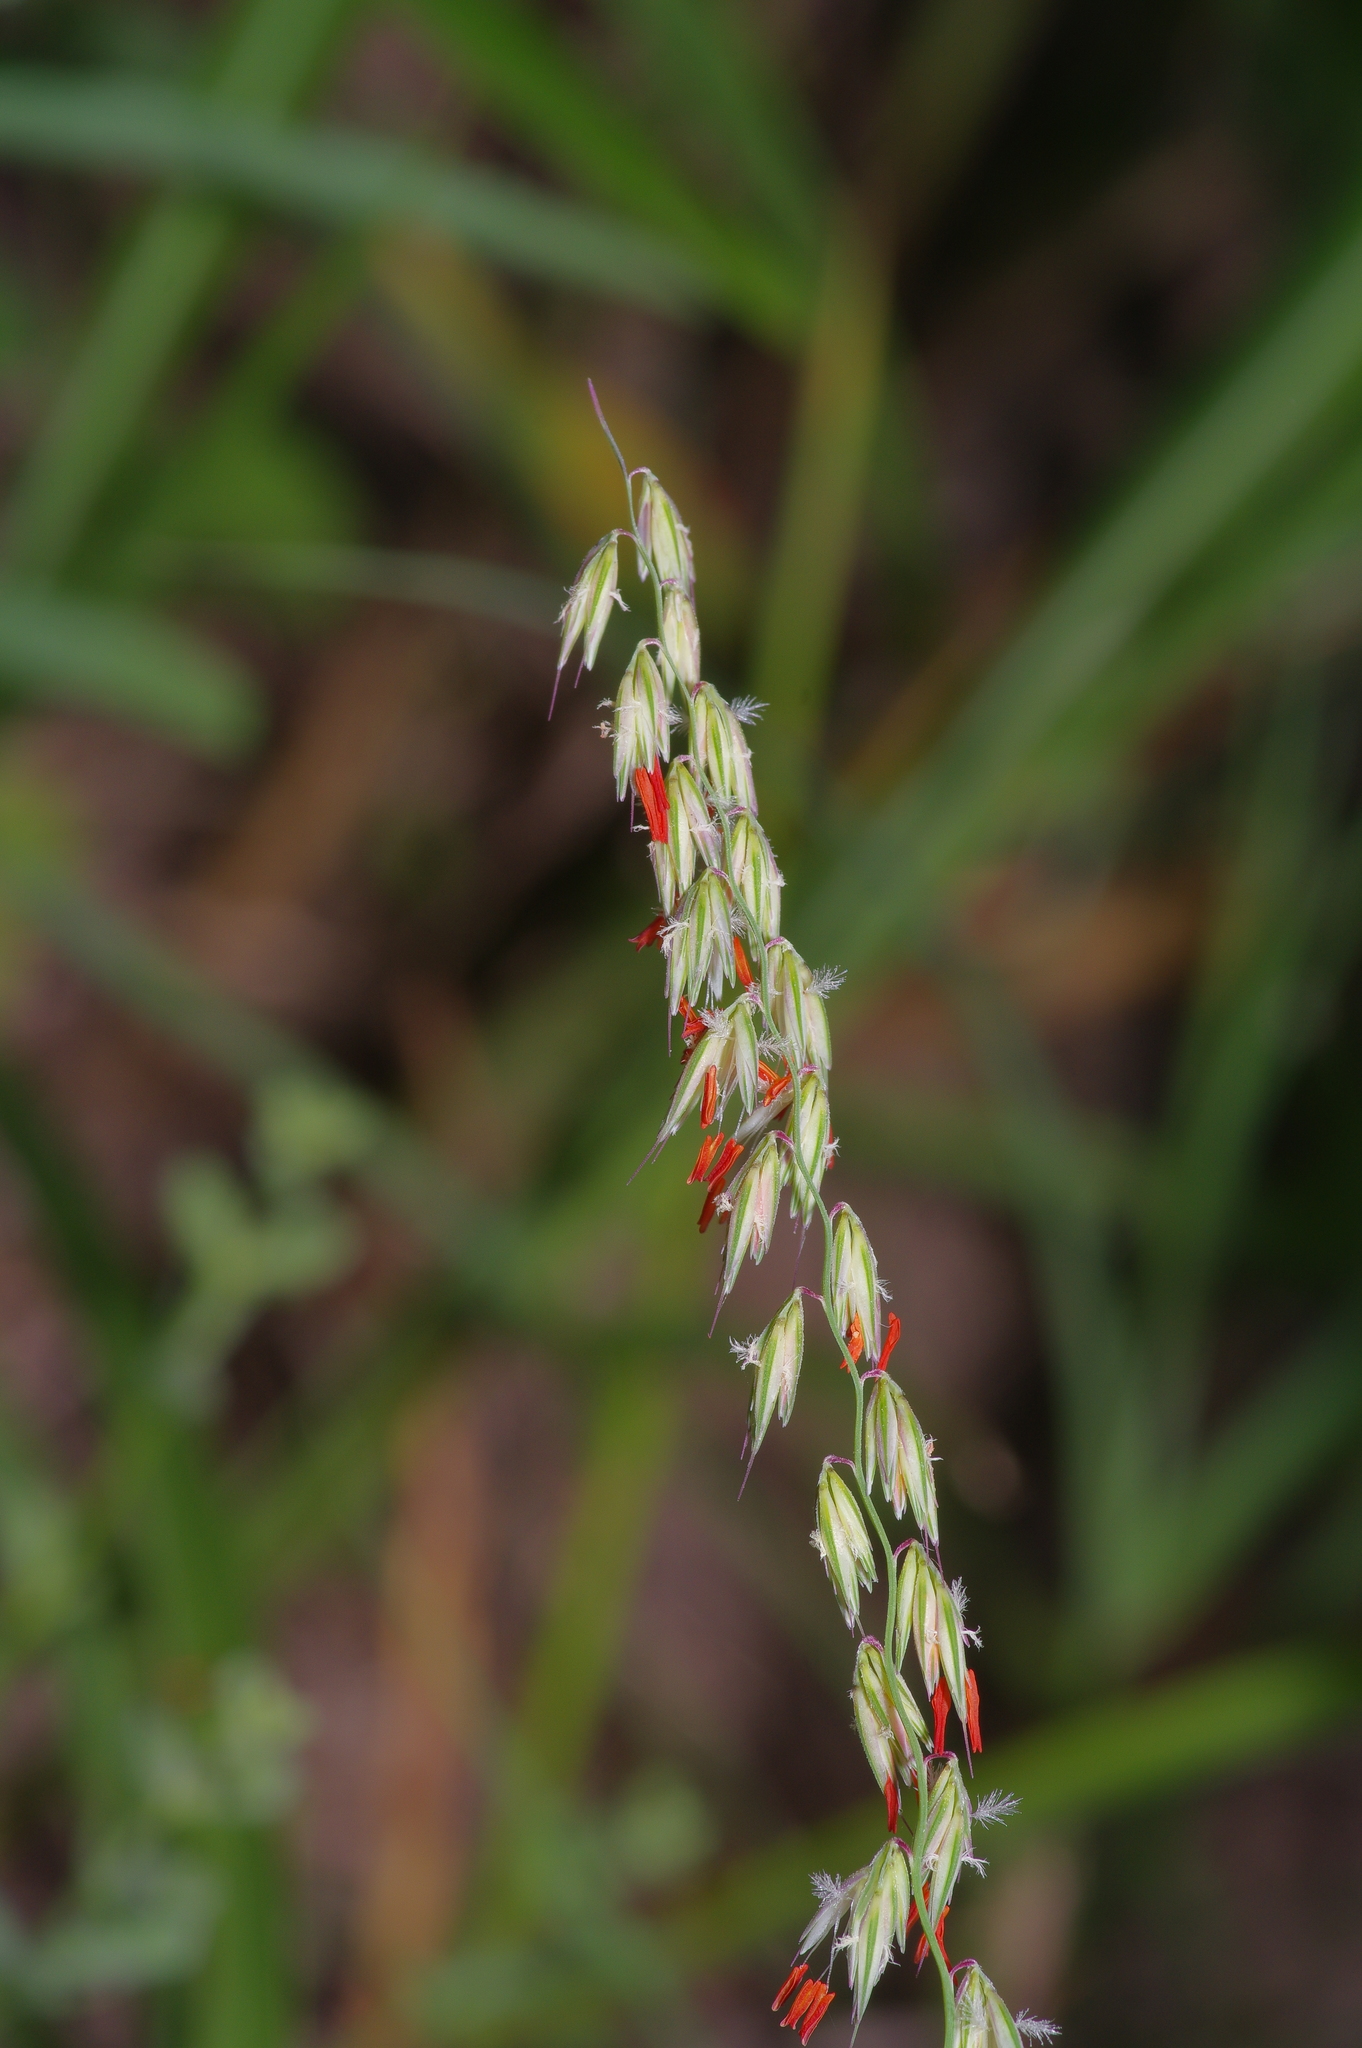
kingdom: Plantae
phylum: Tracheophyta
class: Liliopsida
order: Poales
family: Poaceae
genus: Bouteloua
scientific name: Bouteloua curtipendula
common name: Side-oats grama
